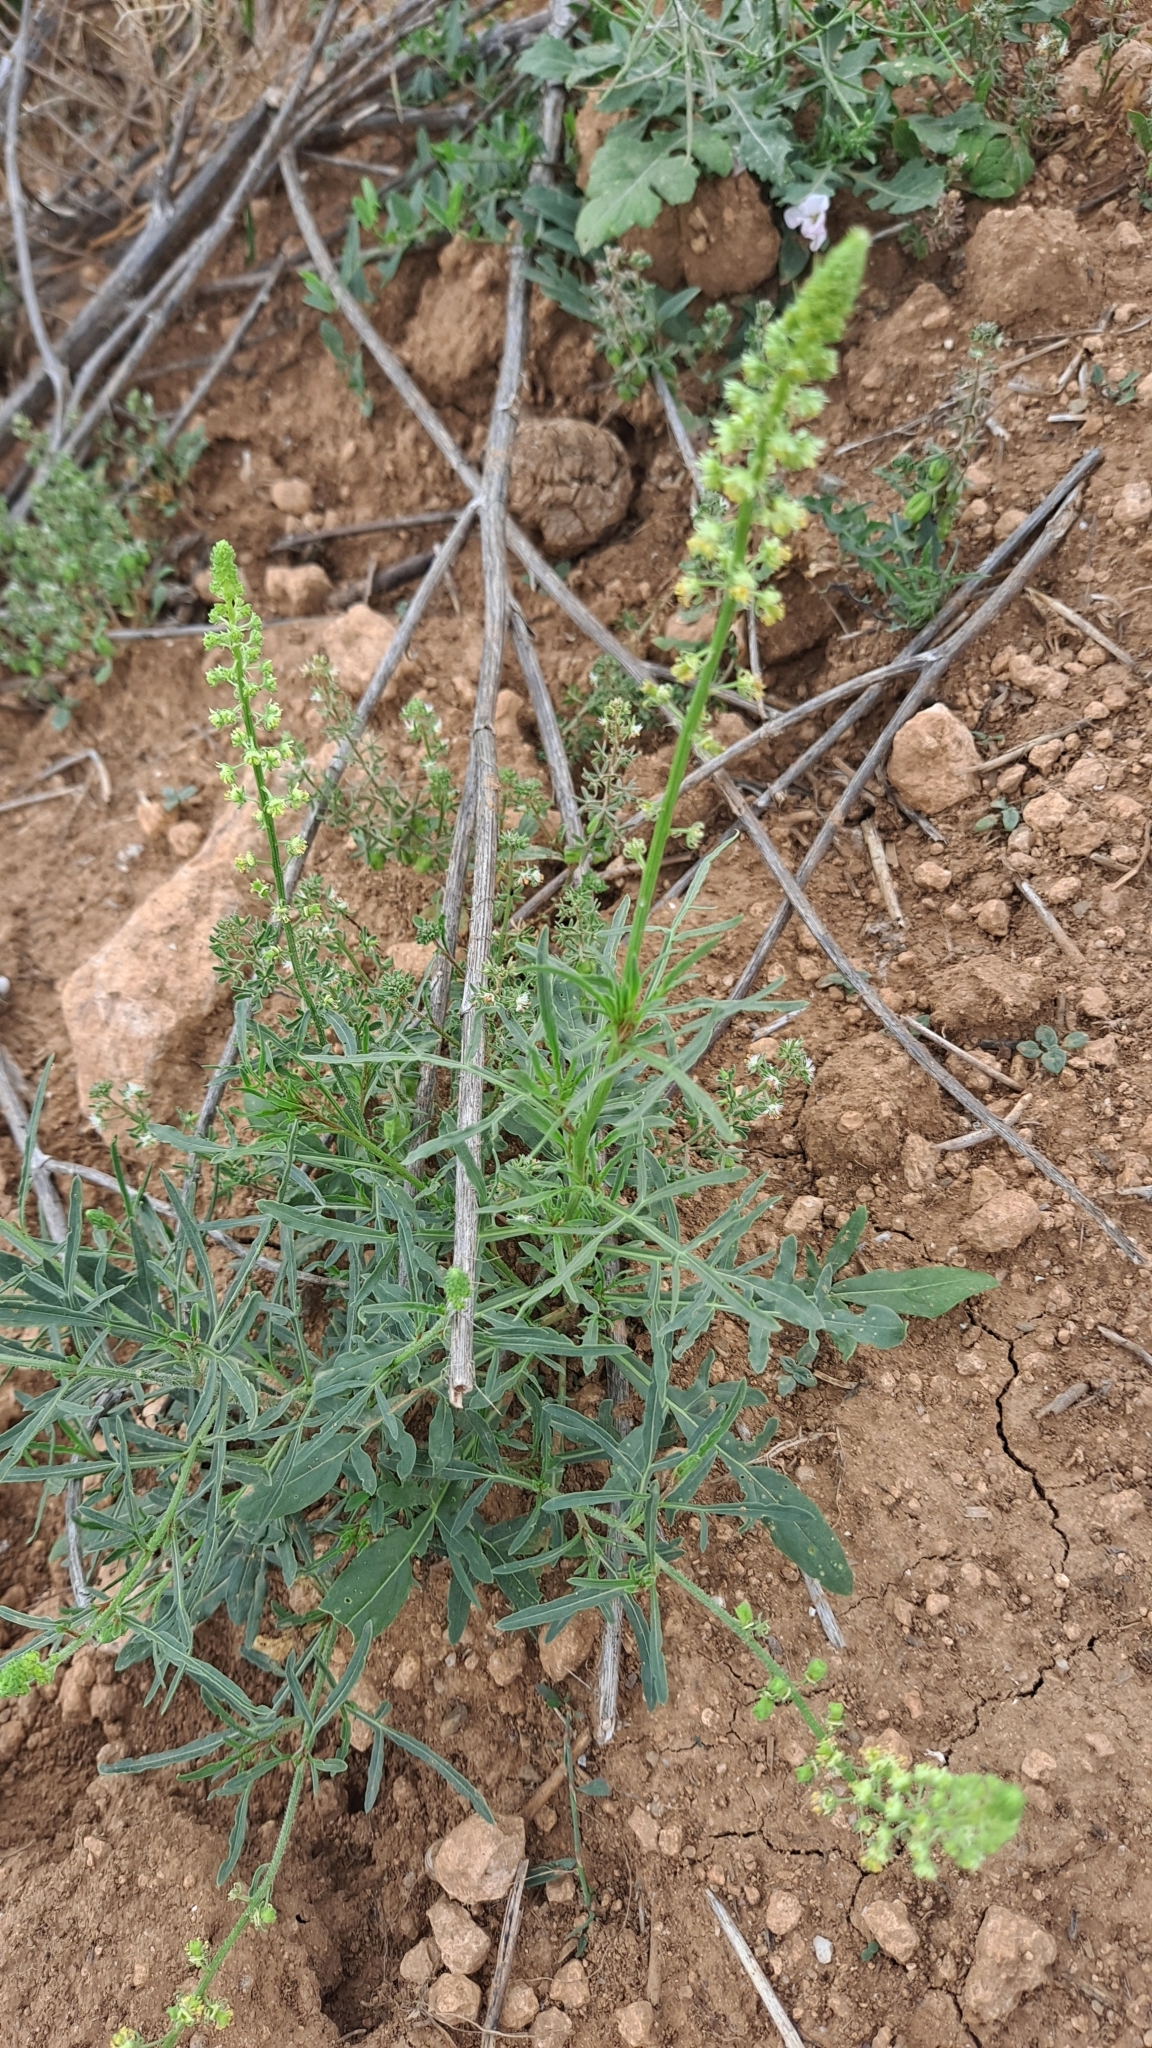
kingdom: Plantae
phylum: Tracheophyta
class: Magnoliopsida
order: Brassicales
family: Resedaceae
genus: Reseda
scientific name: Reseda lutea
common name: Wild mignonette
